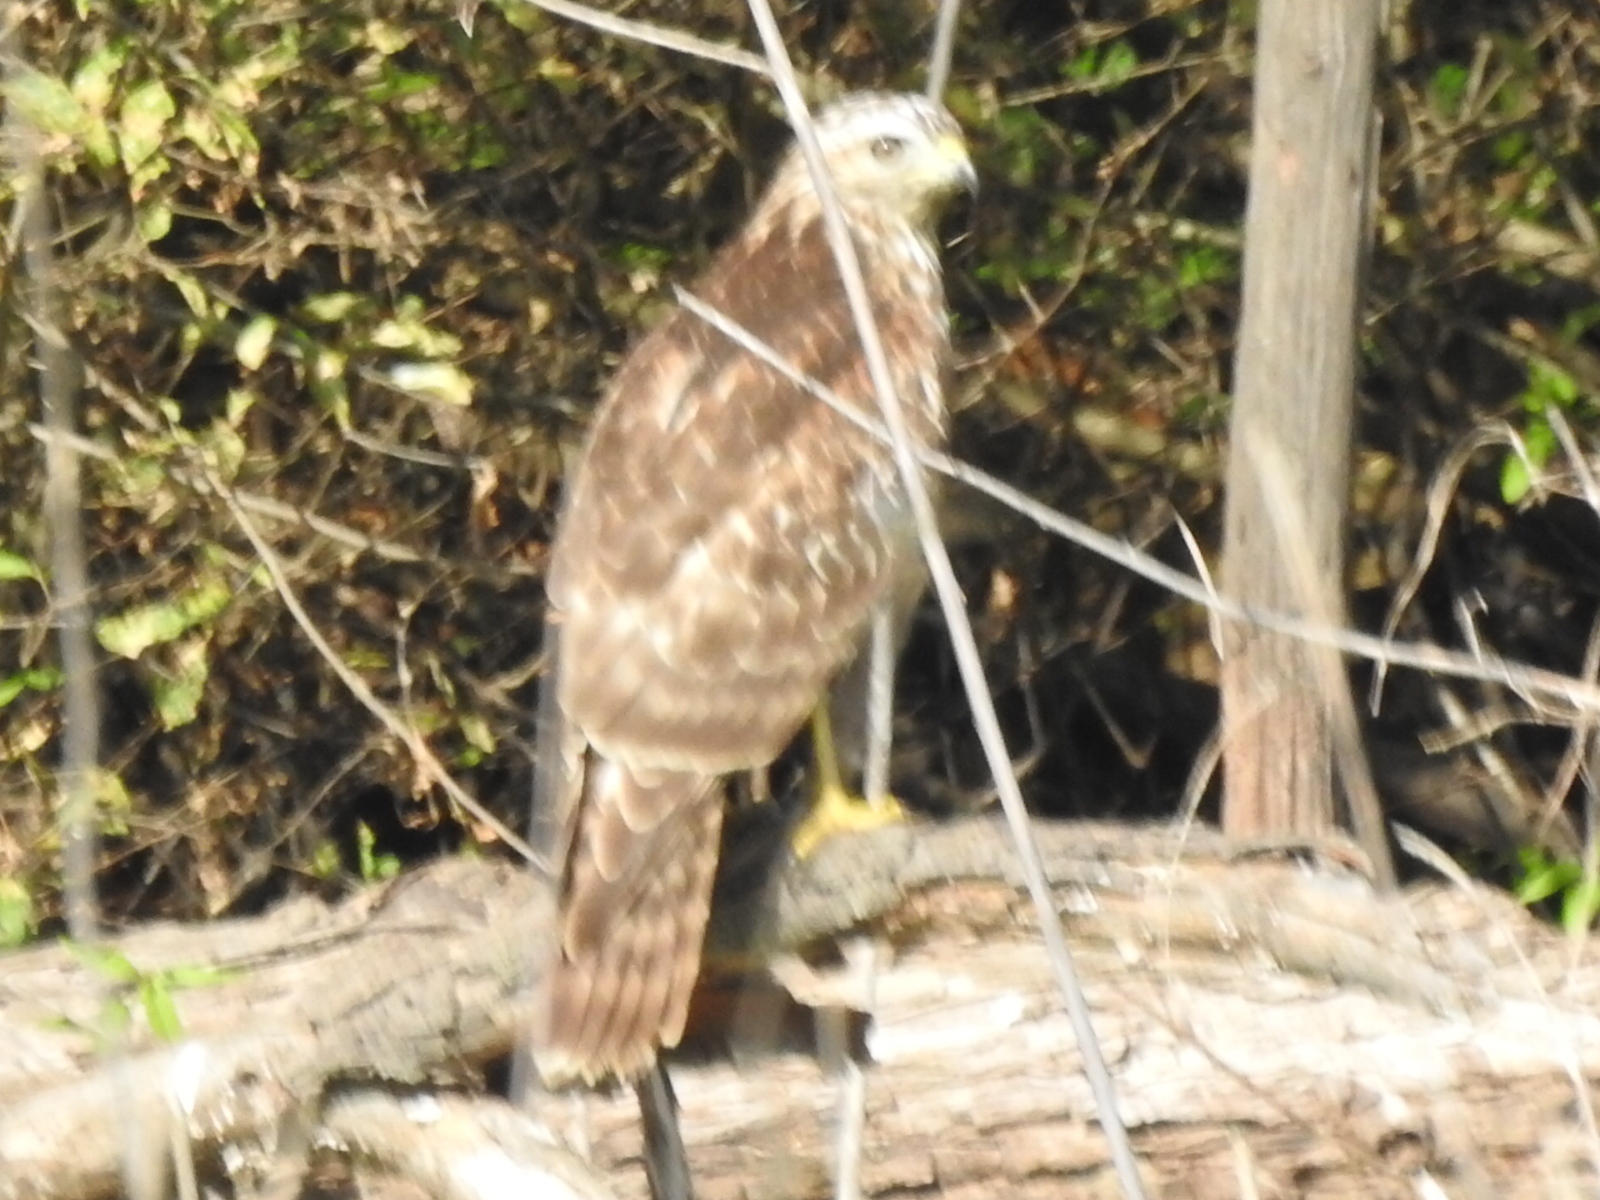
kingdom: Animalia
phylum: Chordata
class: Aves
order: Accipitriformes
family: Accipitridae
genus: Buteo
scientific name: Buteo lineatus
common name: Red-shouldered hawk
